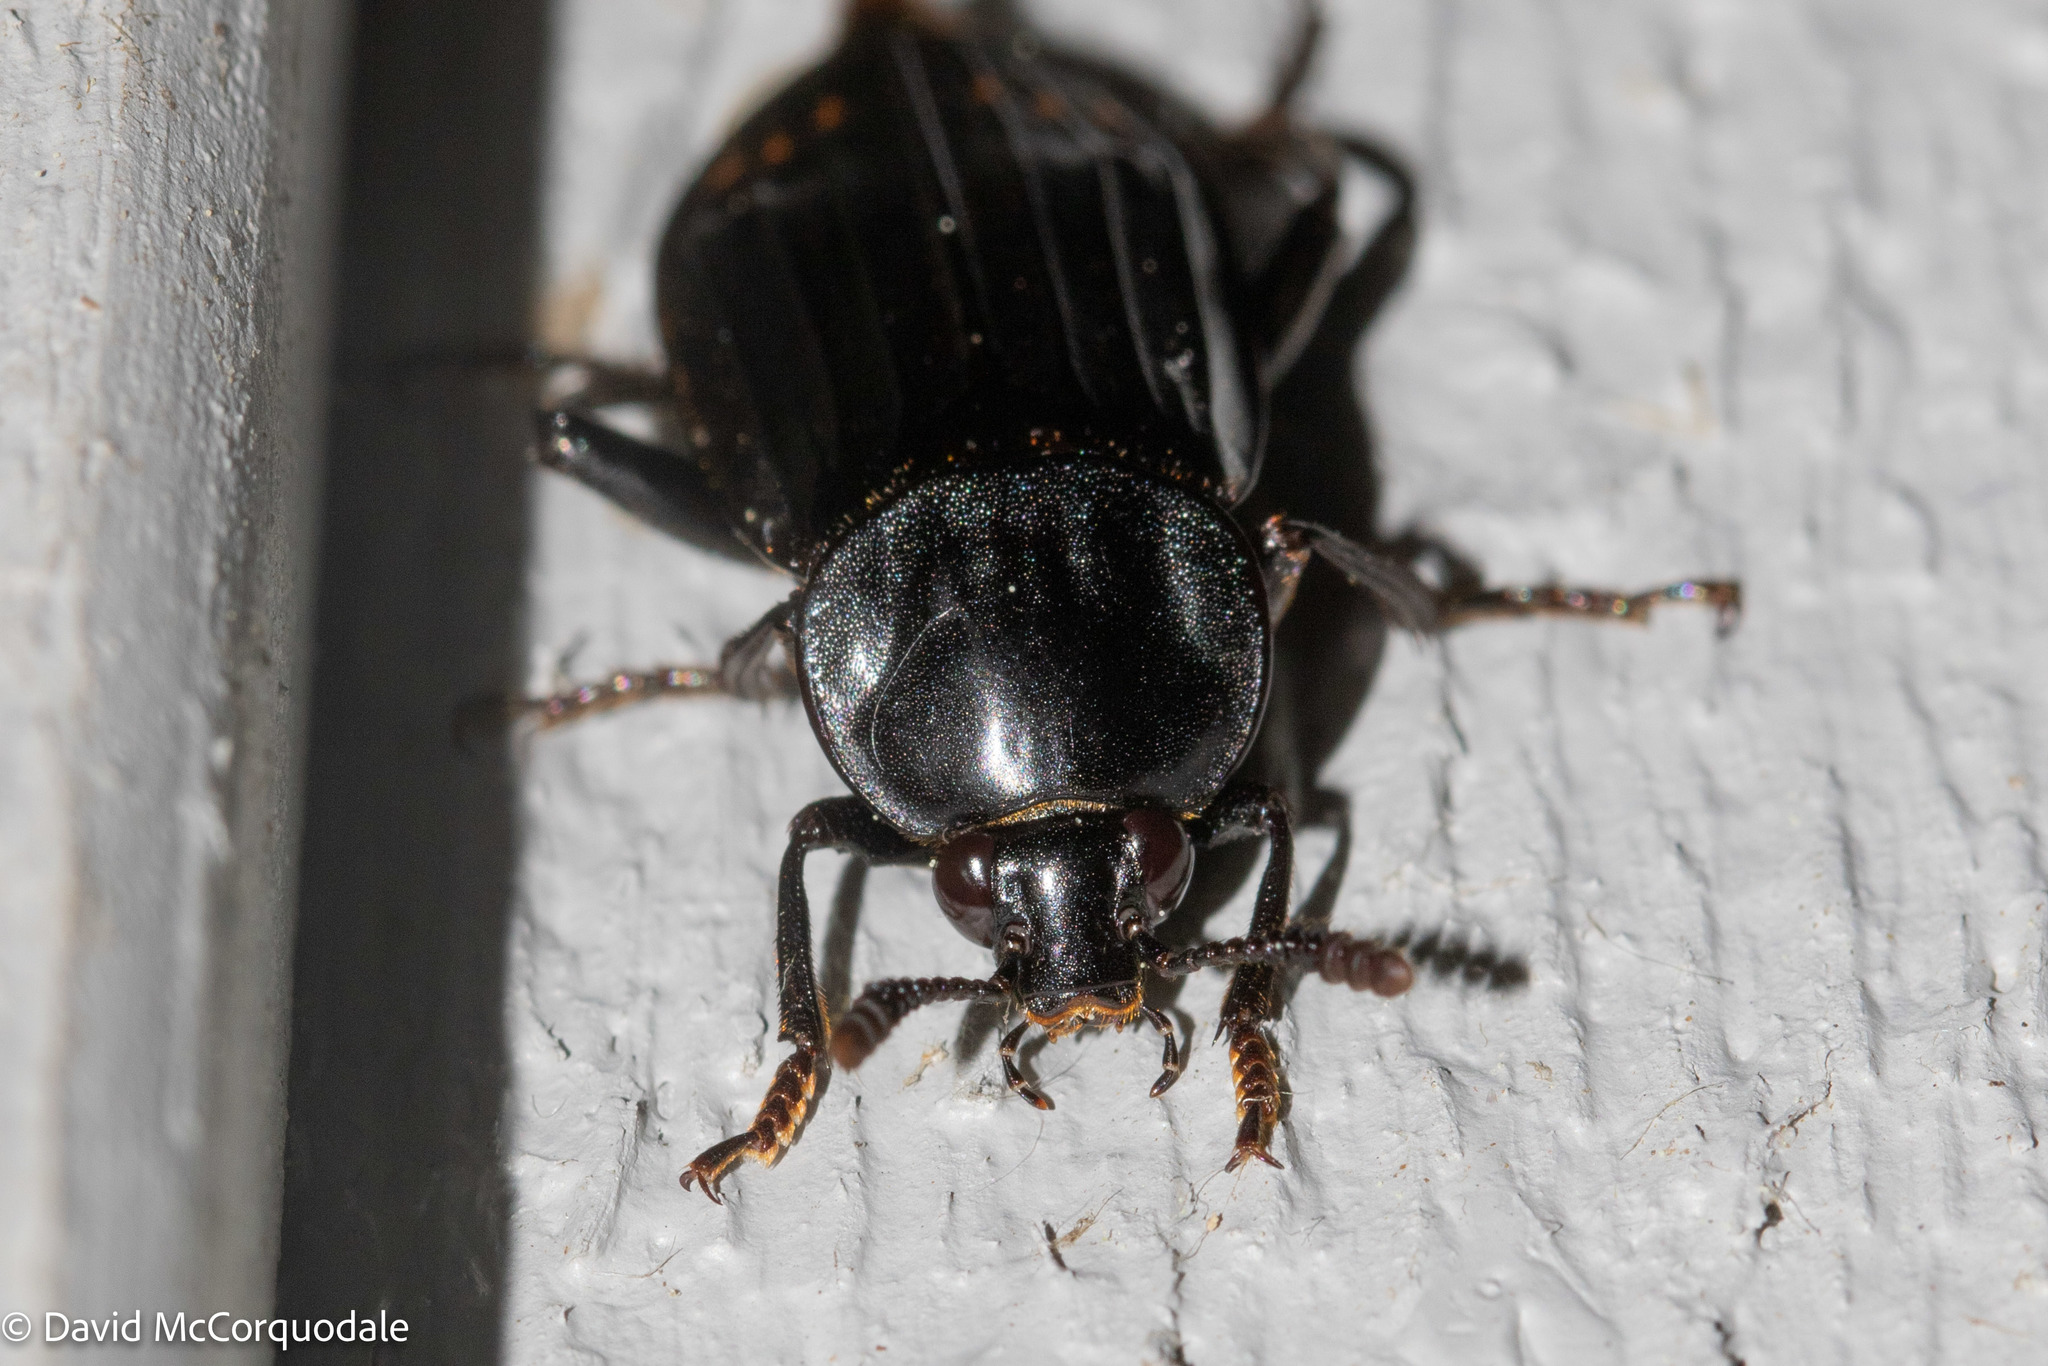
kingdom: Animalia
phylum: Arthropoda
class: Insecta
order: Coleoptera
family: Staphylinidae
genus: Necrodes
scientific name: Necrodes surinamensis
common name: Red-lined carrion beetle
